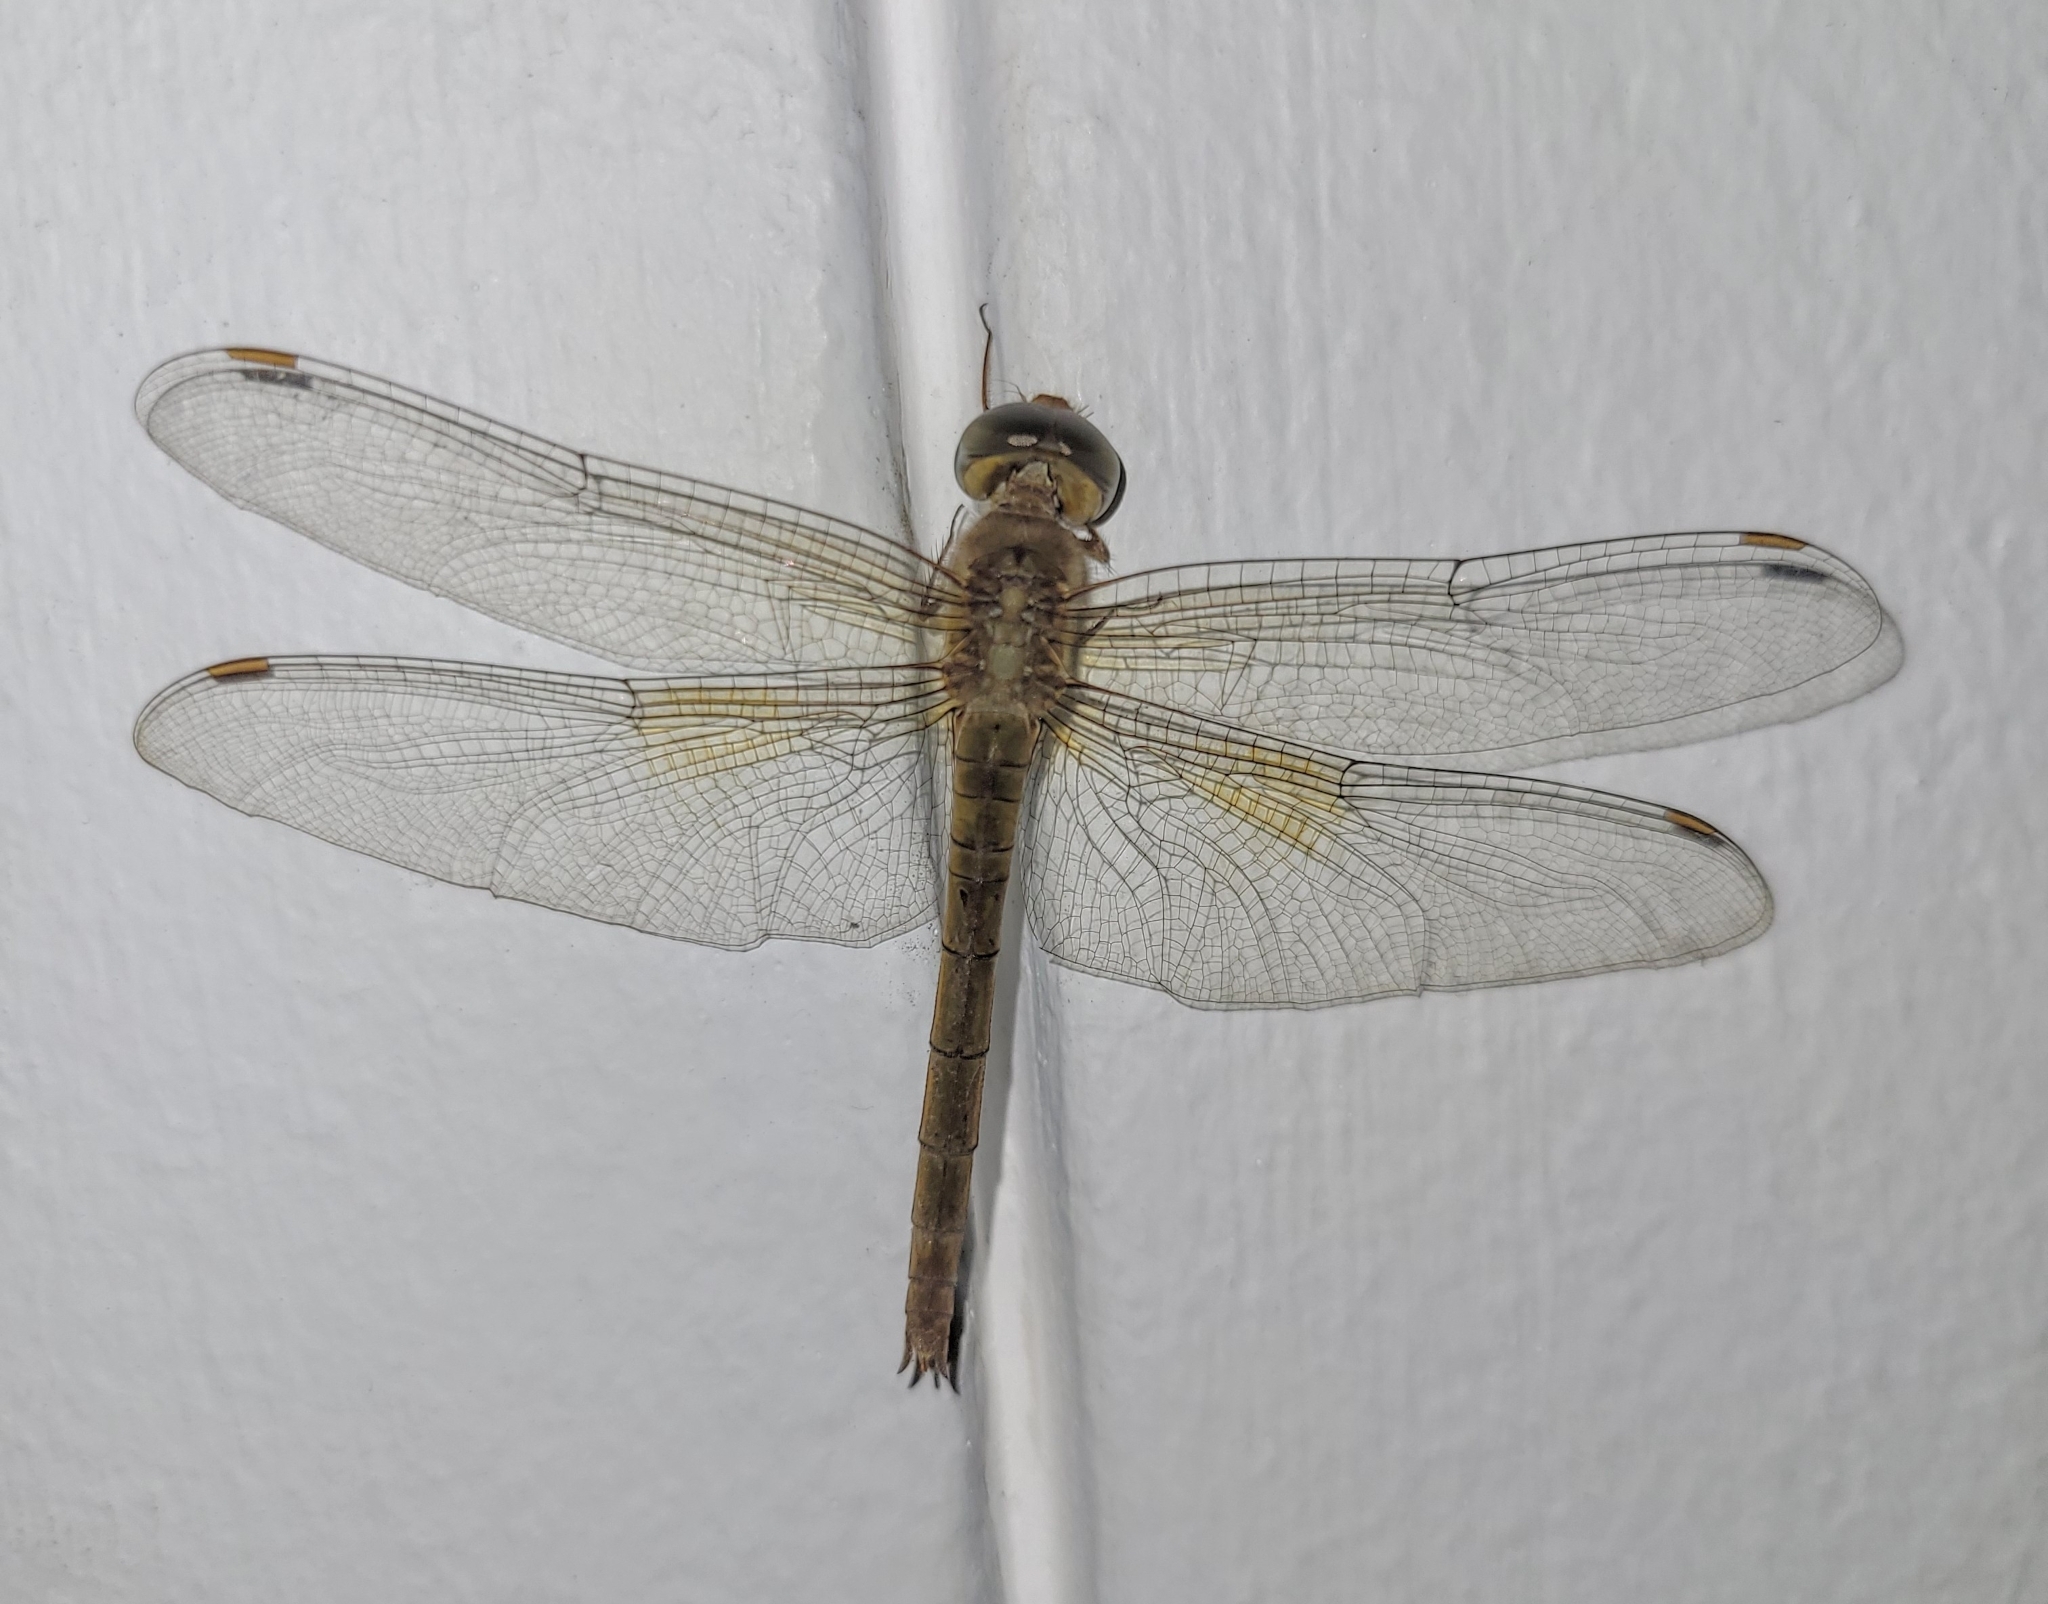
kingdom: Animalia
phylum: Arthropoda
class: Insecta
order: Odonata
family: Libellulidae
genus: Tholymis
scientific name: Tholymis tillarga
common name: Coral-tailed cloud wing
